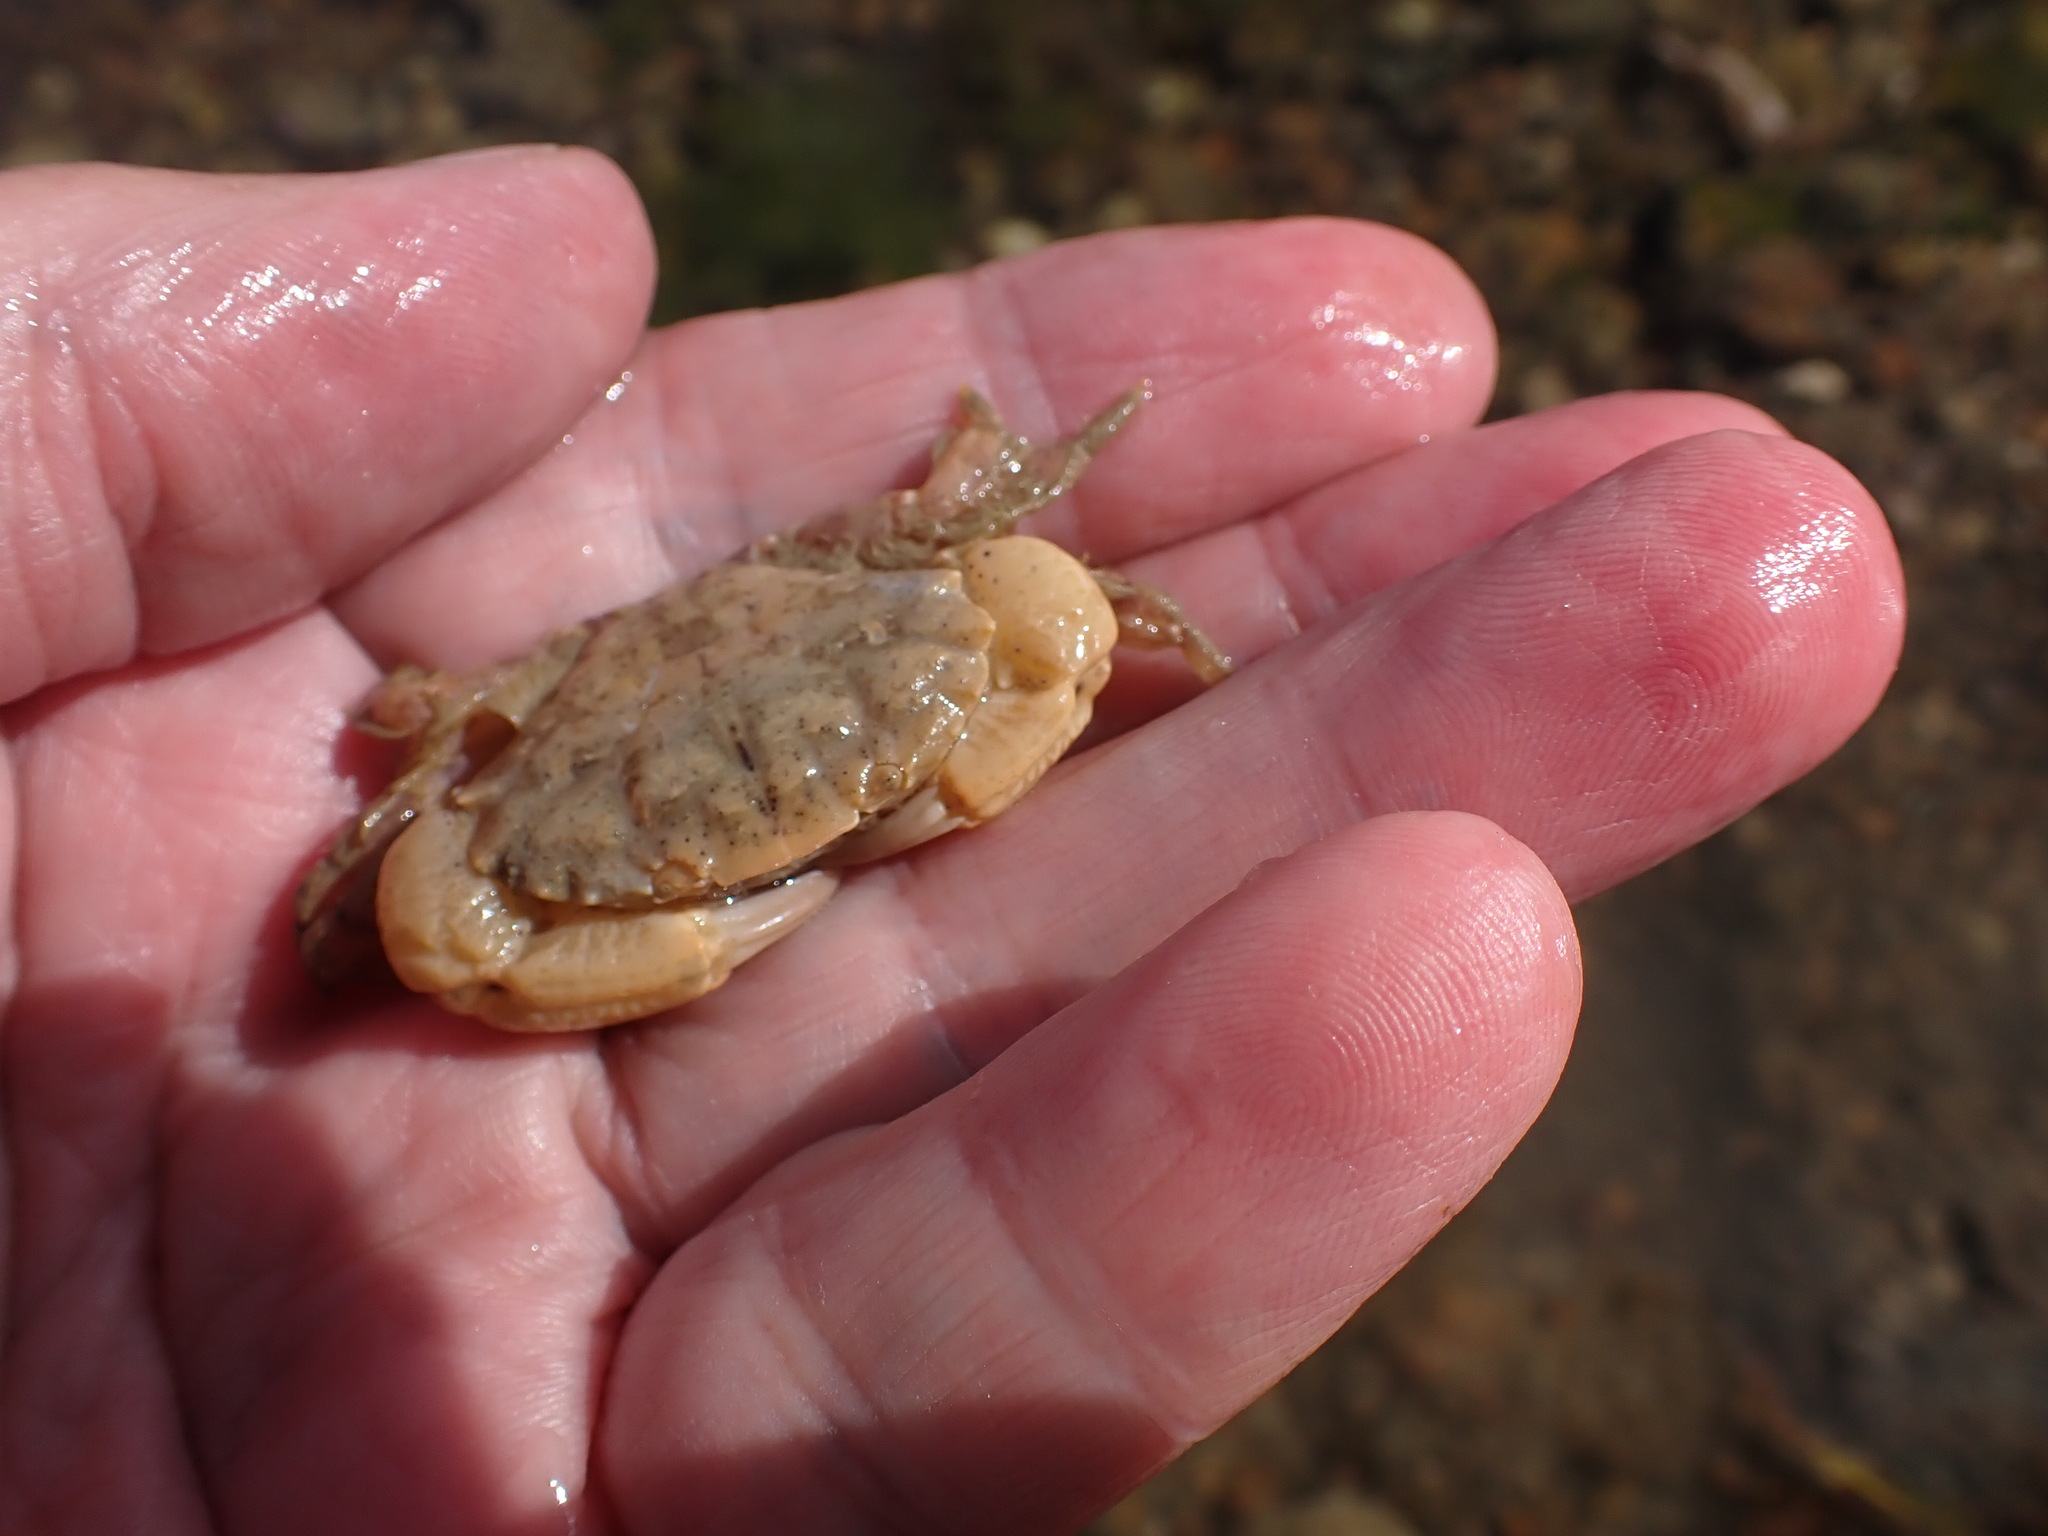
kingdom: Animalia
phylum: Arthropoda
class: Malacostraca
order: Decapoda
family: Xanthidae
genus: Xantho
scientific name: Xantho hydrophilus
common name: Montagu's crab
